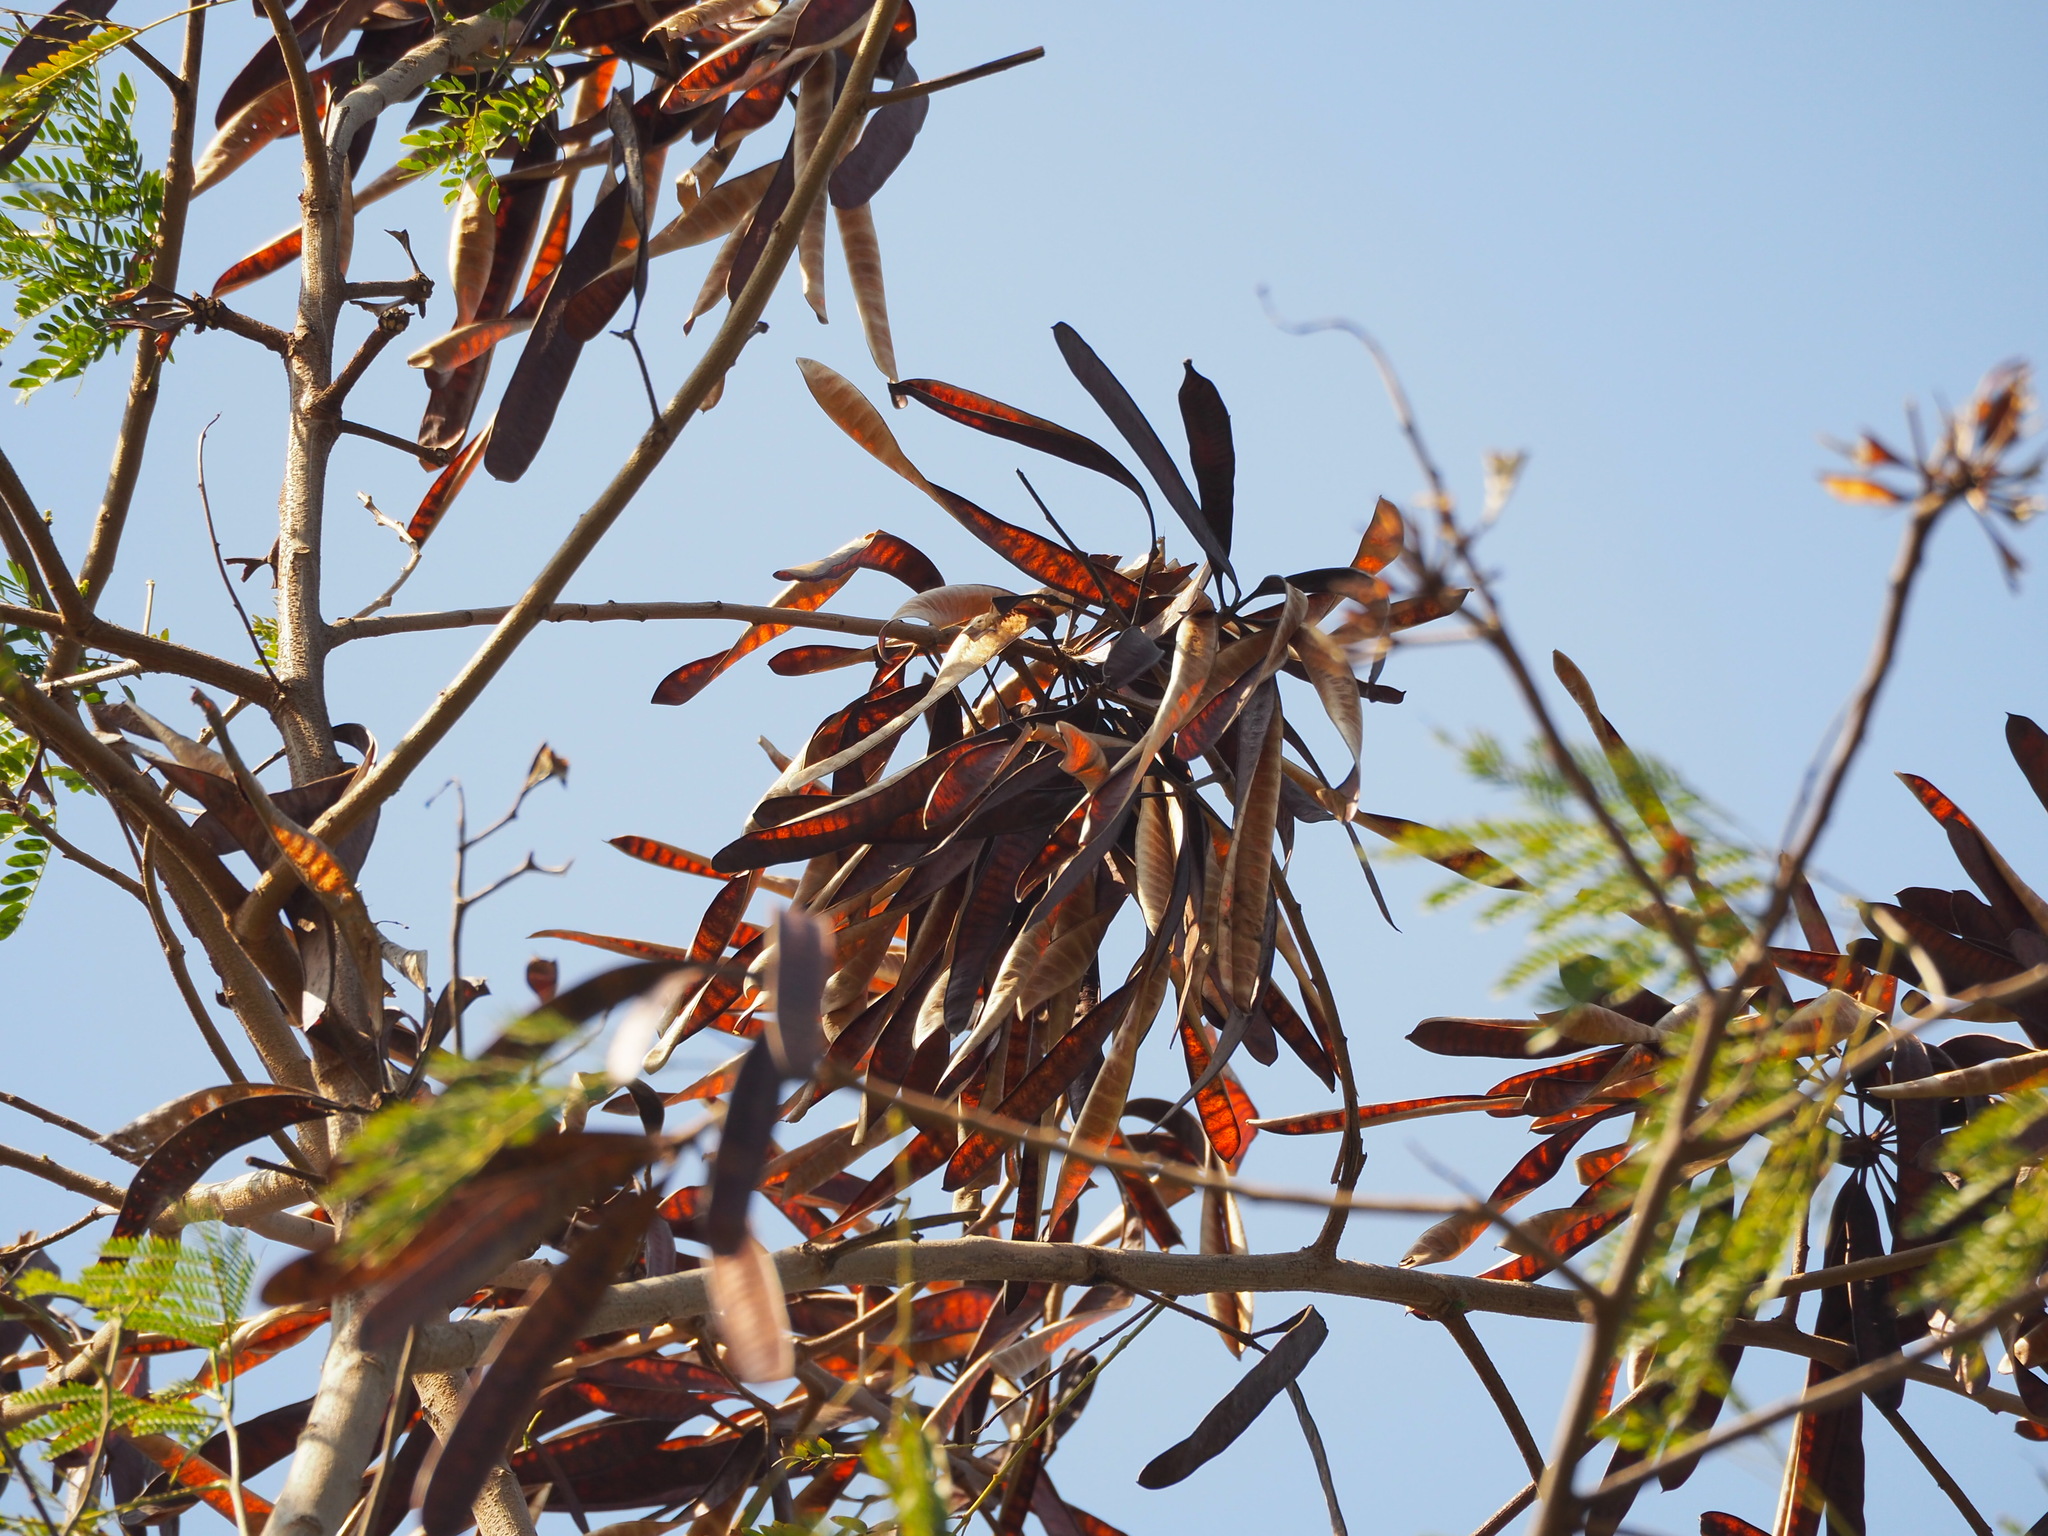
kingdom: Plantae
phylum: Tracheophyta
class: Magnoliopsida
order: Fabales
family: Fabaceae
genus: Leucaena
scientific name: Leucaena leucocephala
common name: White leadtree
